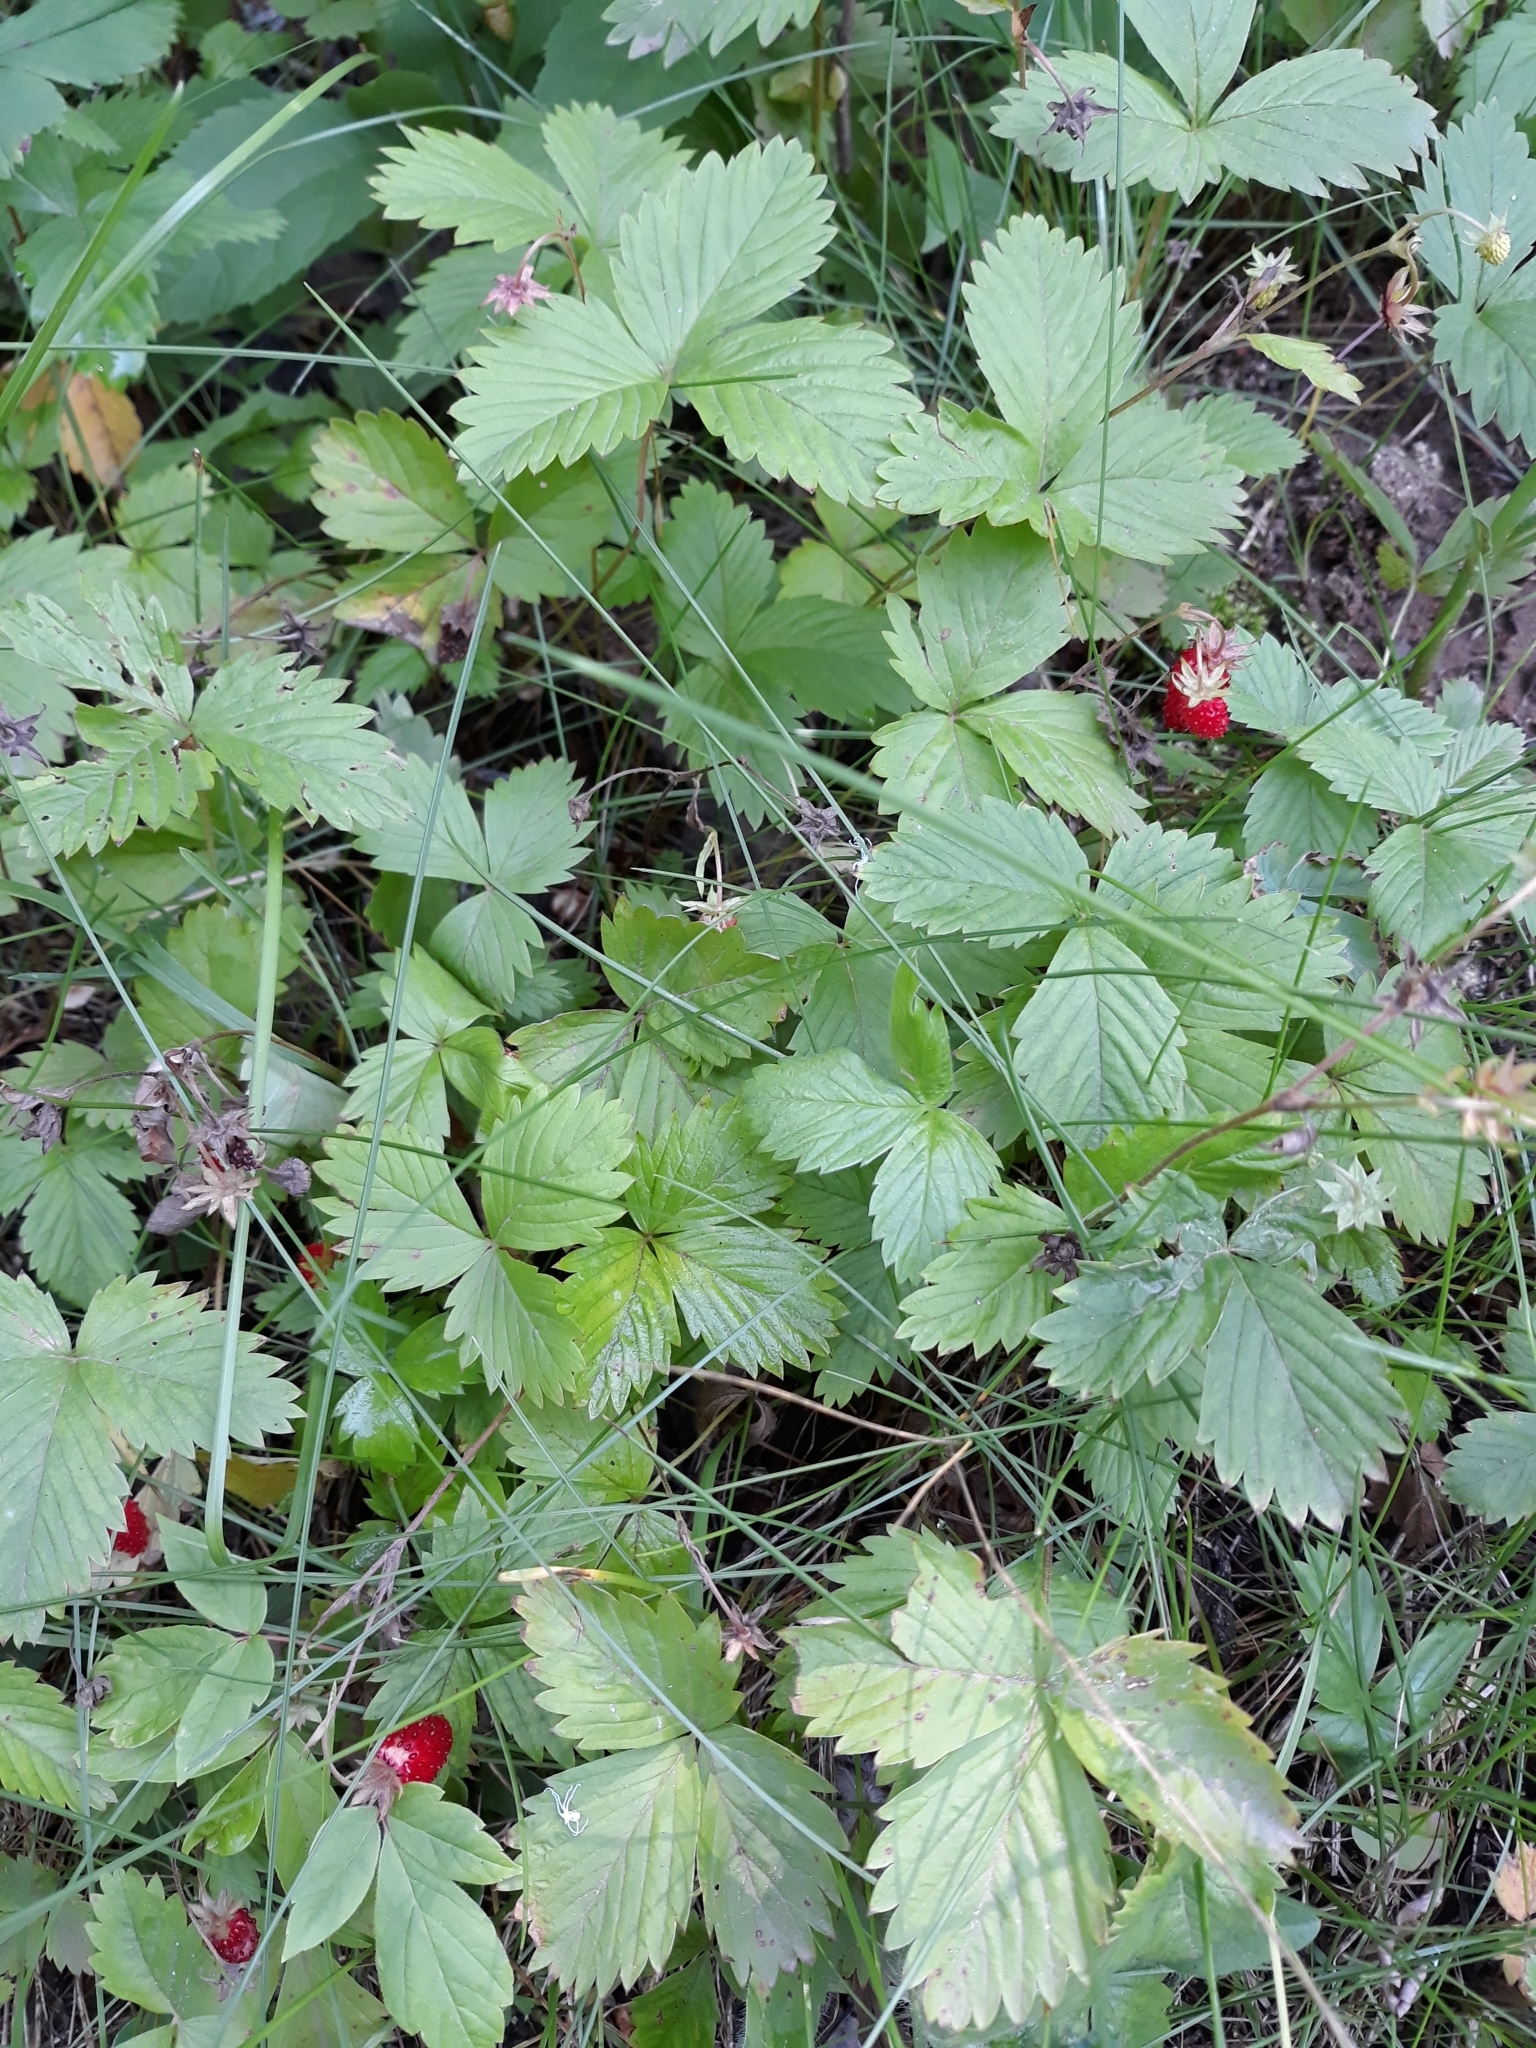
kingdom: Plantae
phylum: Tracheophyta
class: Magnoliopsida
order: Rosales
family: Rosaceae
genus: Fragaria
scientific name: Fragaria vesca
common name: Wild strawberry
